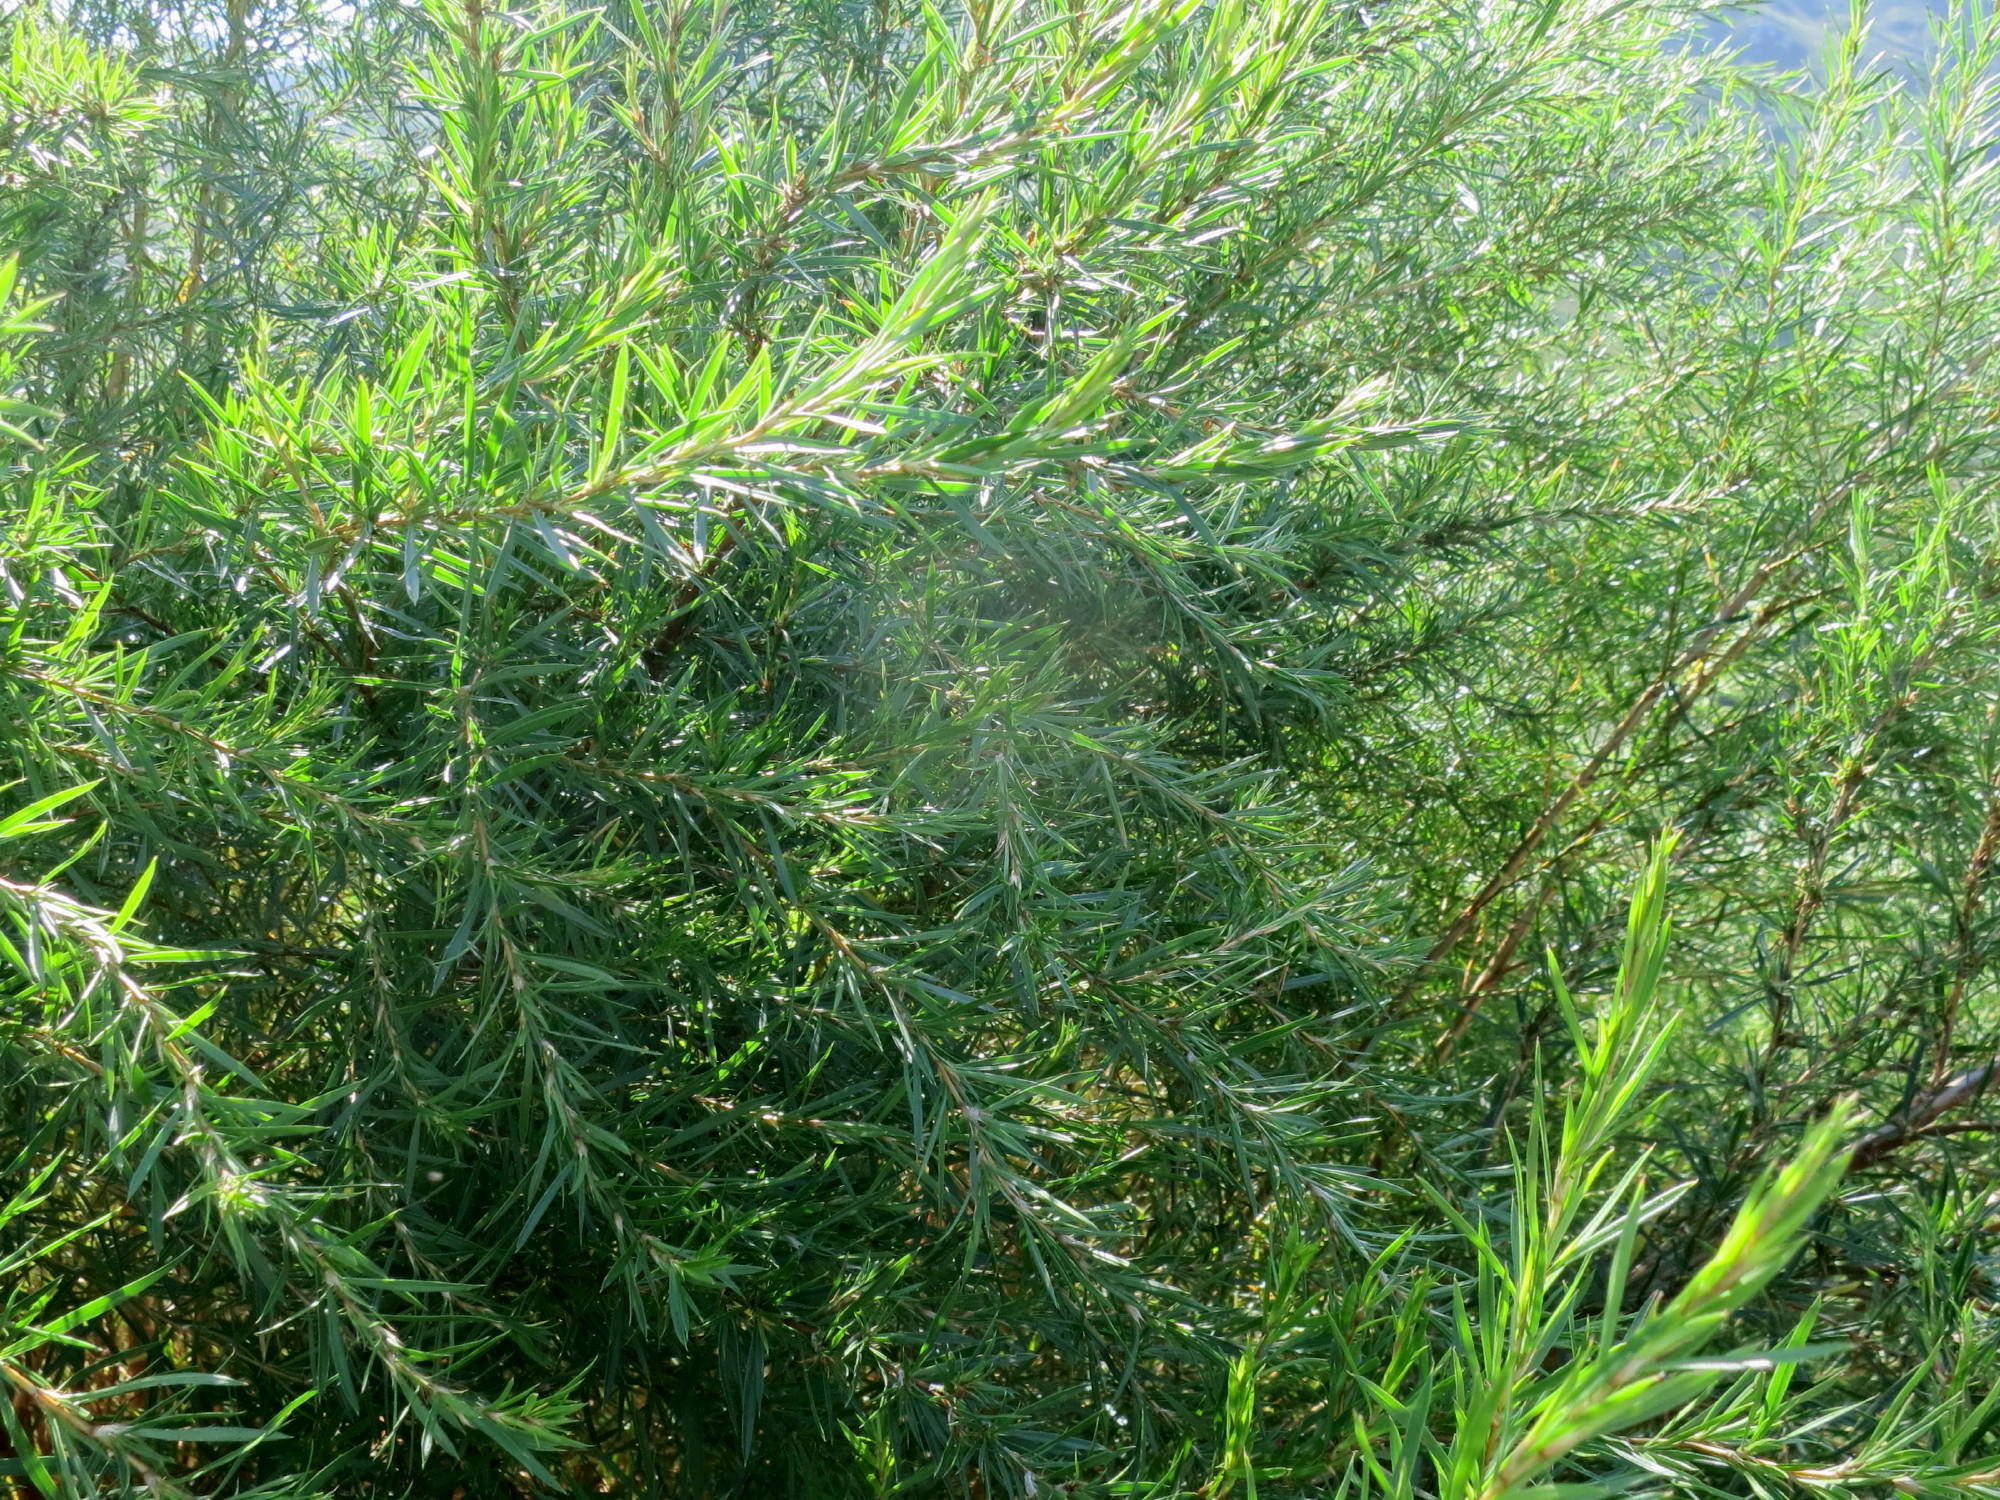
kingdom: Plantae
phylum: Tracheophyta
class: Magnoliopsida
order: Rosales
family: Rosaceae
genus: Cliffortia
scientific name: Cliffortia strobilifera
